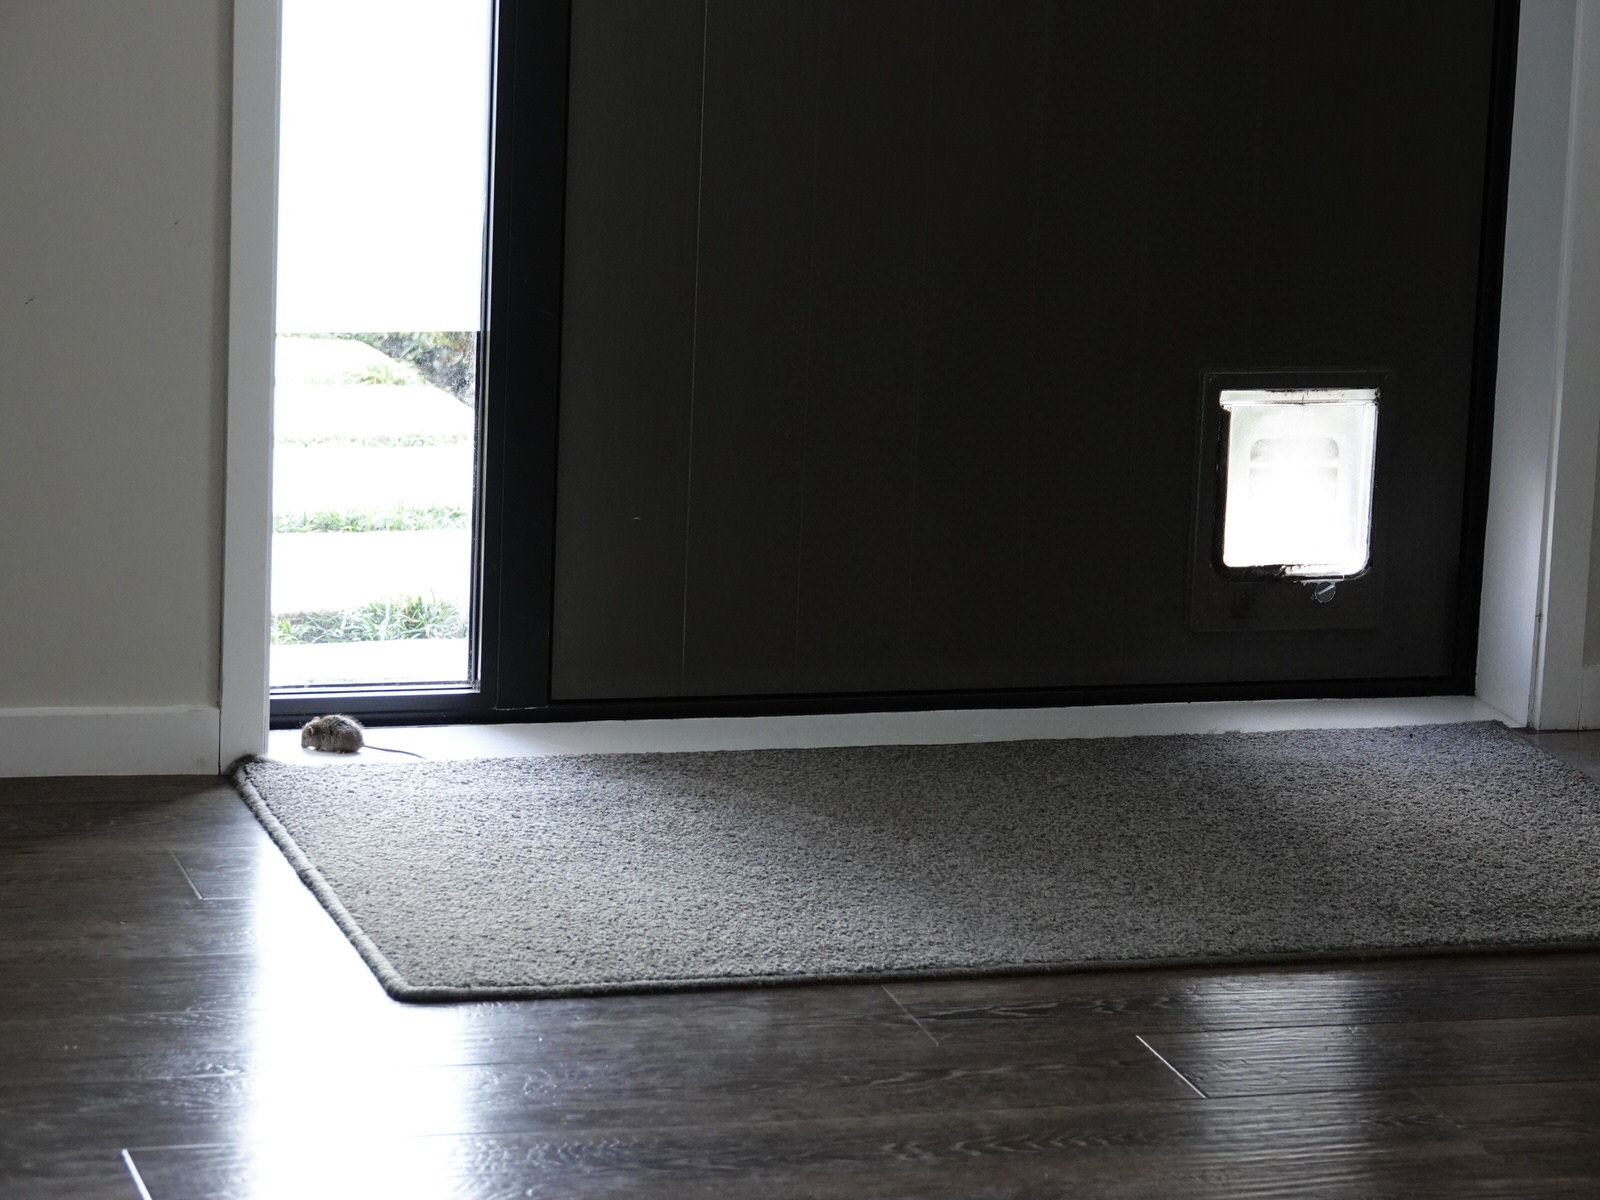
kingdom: Animalia
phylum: Chordata
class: Mammalia
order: Rodentia
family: Muridae
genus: Mus
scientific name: Mus musculus
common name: House mouse
